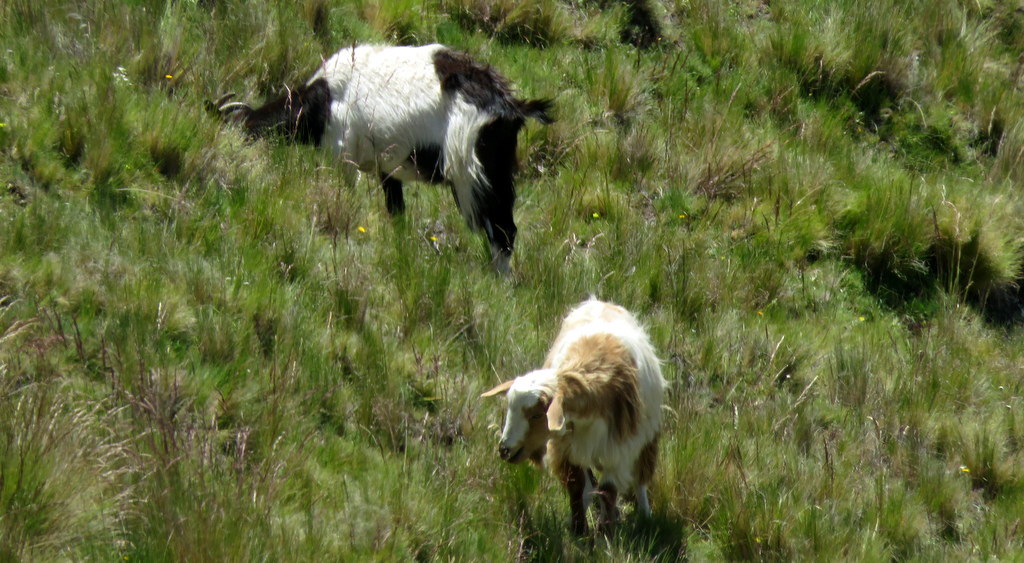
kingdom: Animalia
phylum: Chordata
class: Mammalia
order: Artiodactyla
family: Bovidae
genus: Capra
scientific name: Capra hircus
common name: Domestic goat
